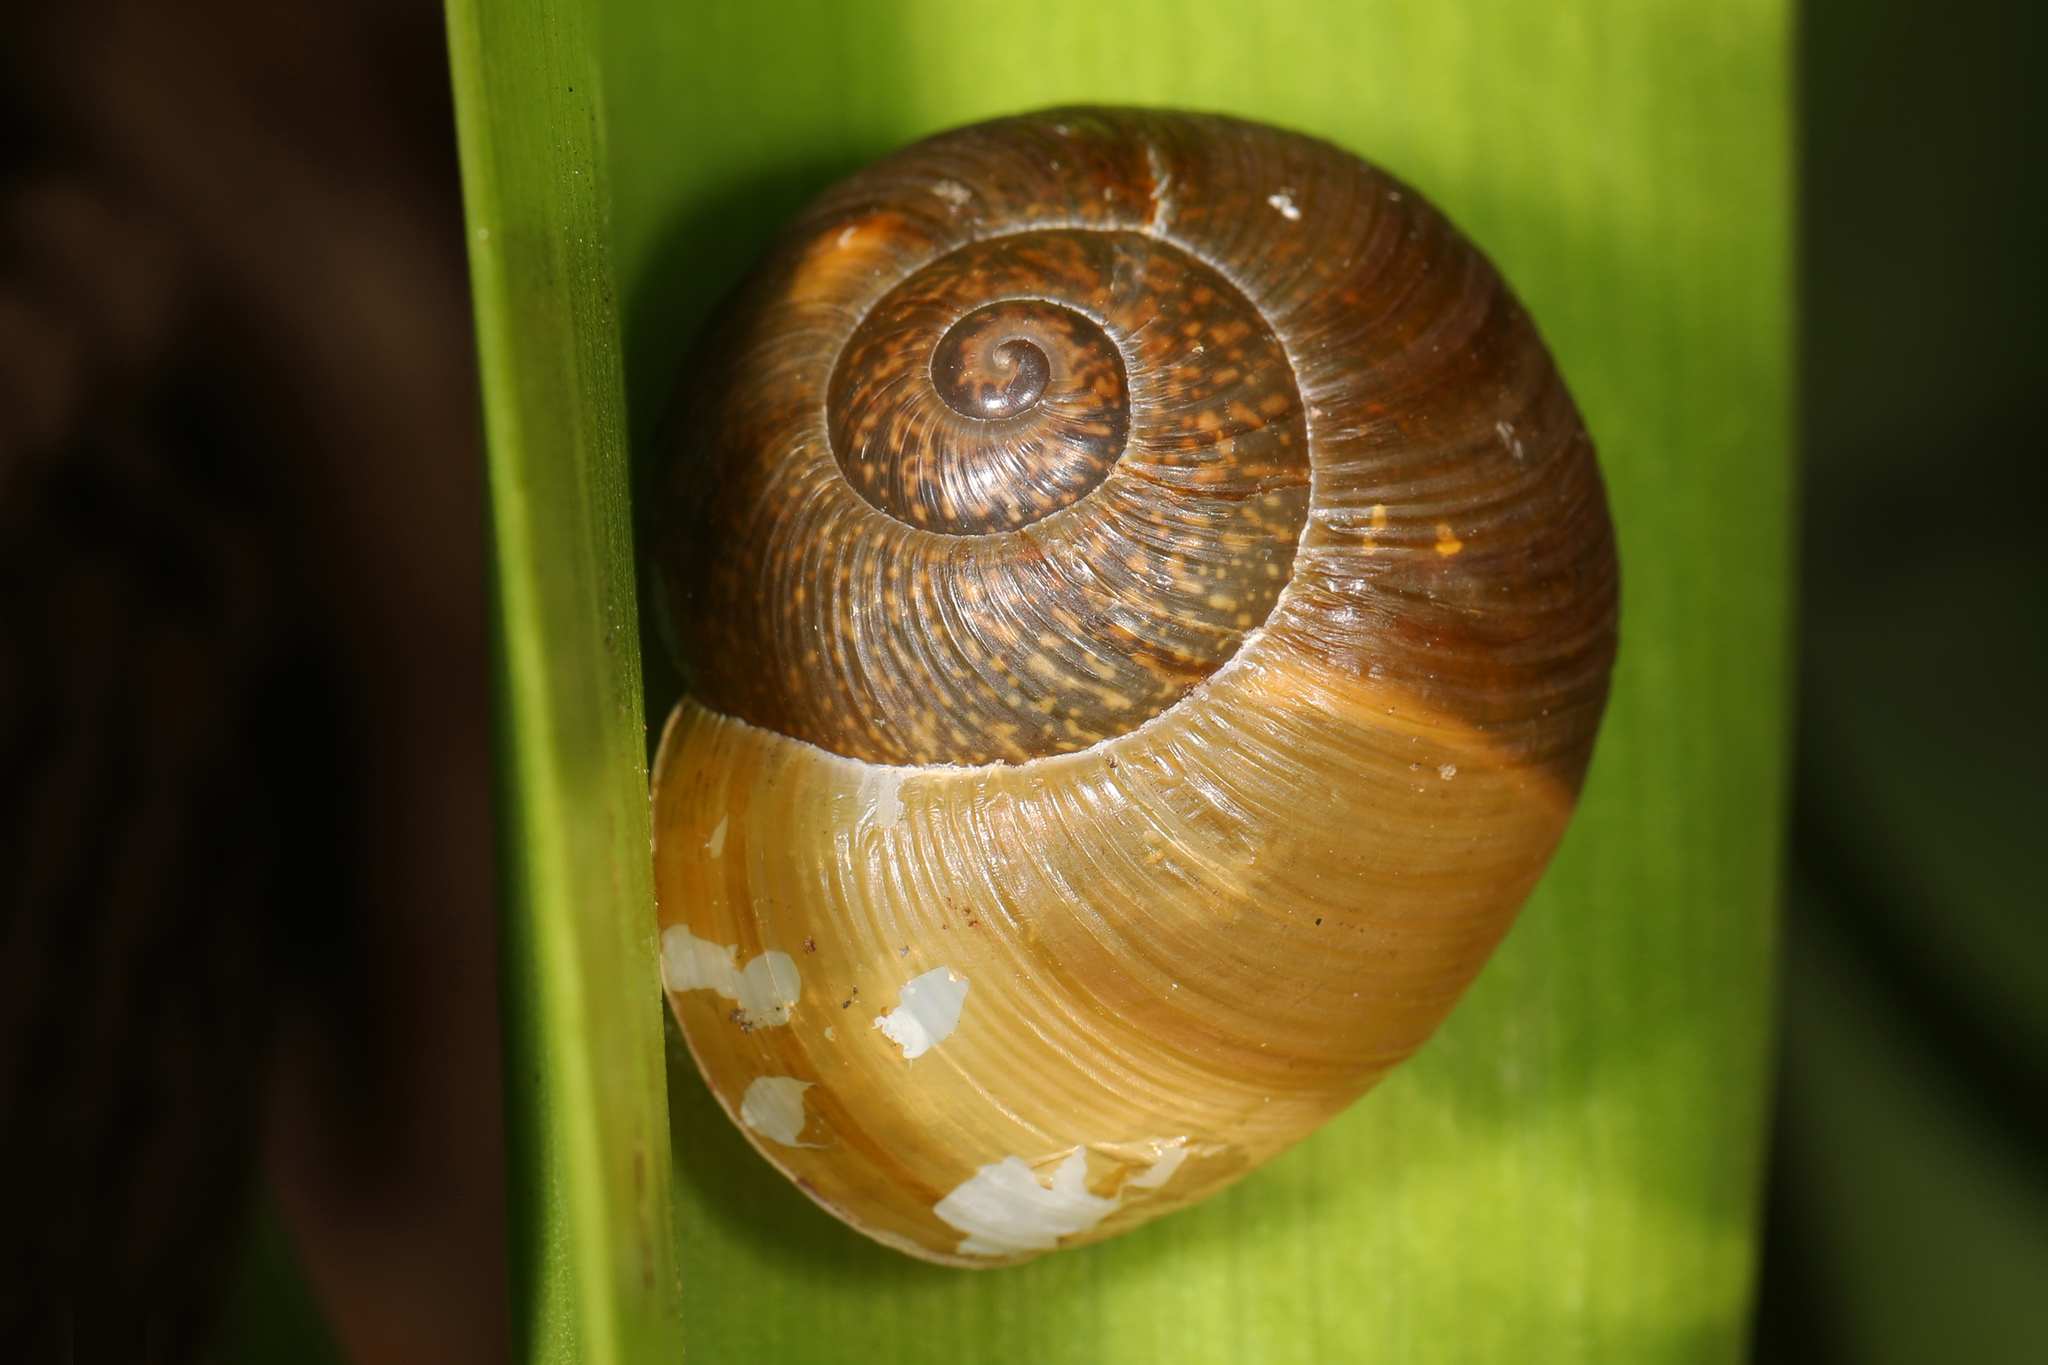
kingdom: Animalia
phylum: Mollusca
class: Gastropoda
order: Stylommatophora
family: Zachrysiidae
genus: Zachrysia
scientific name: Zachrysia provisoria
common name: Garden zachrysia
